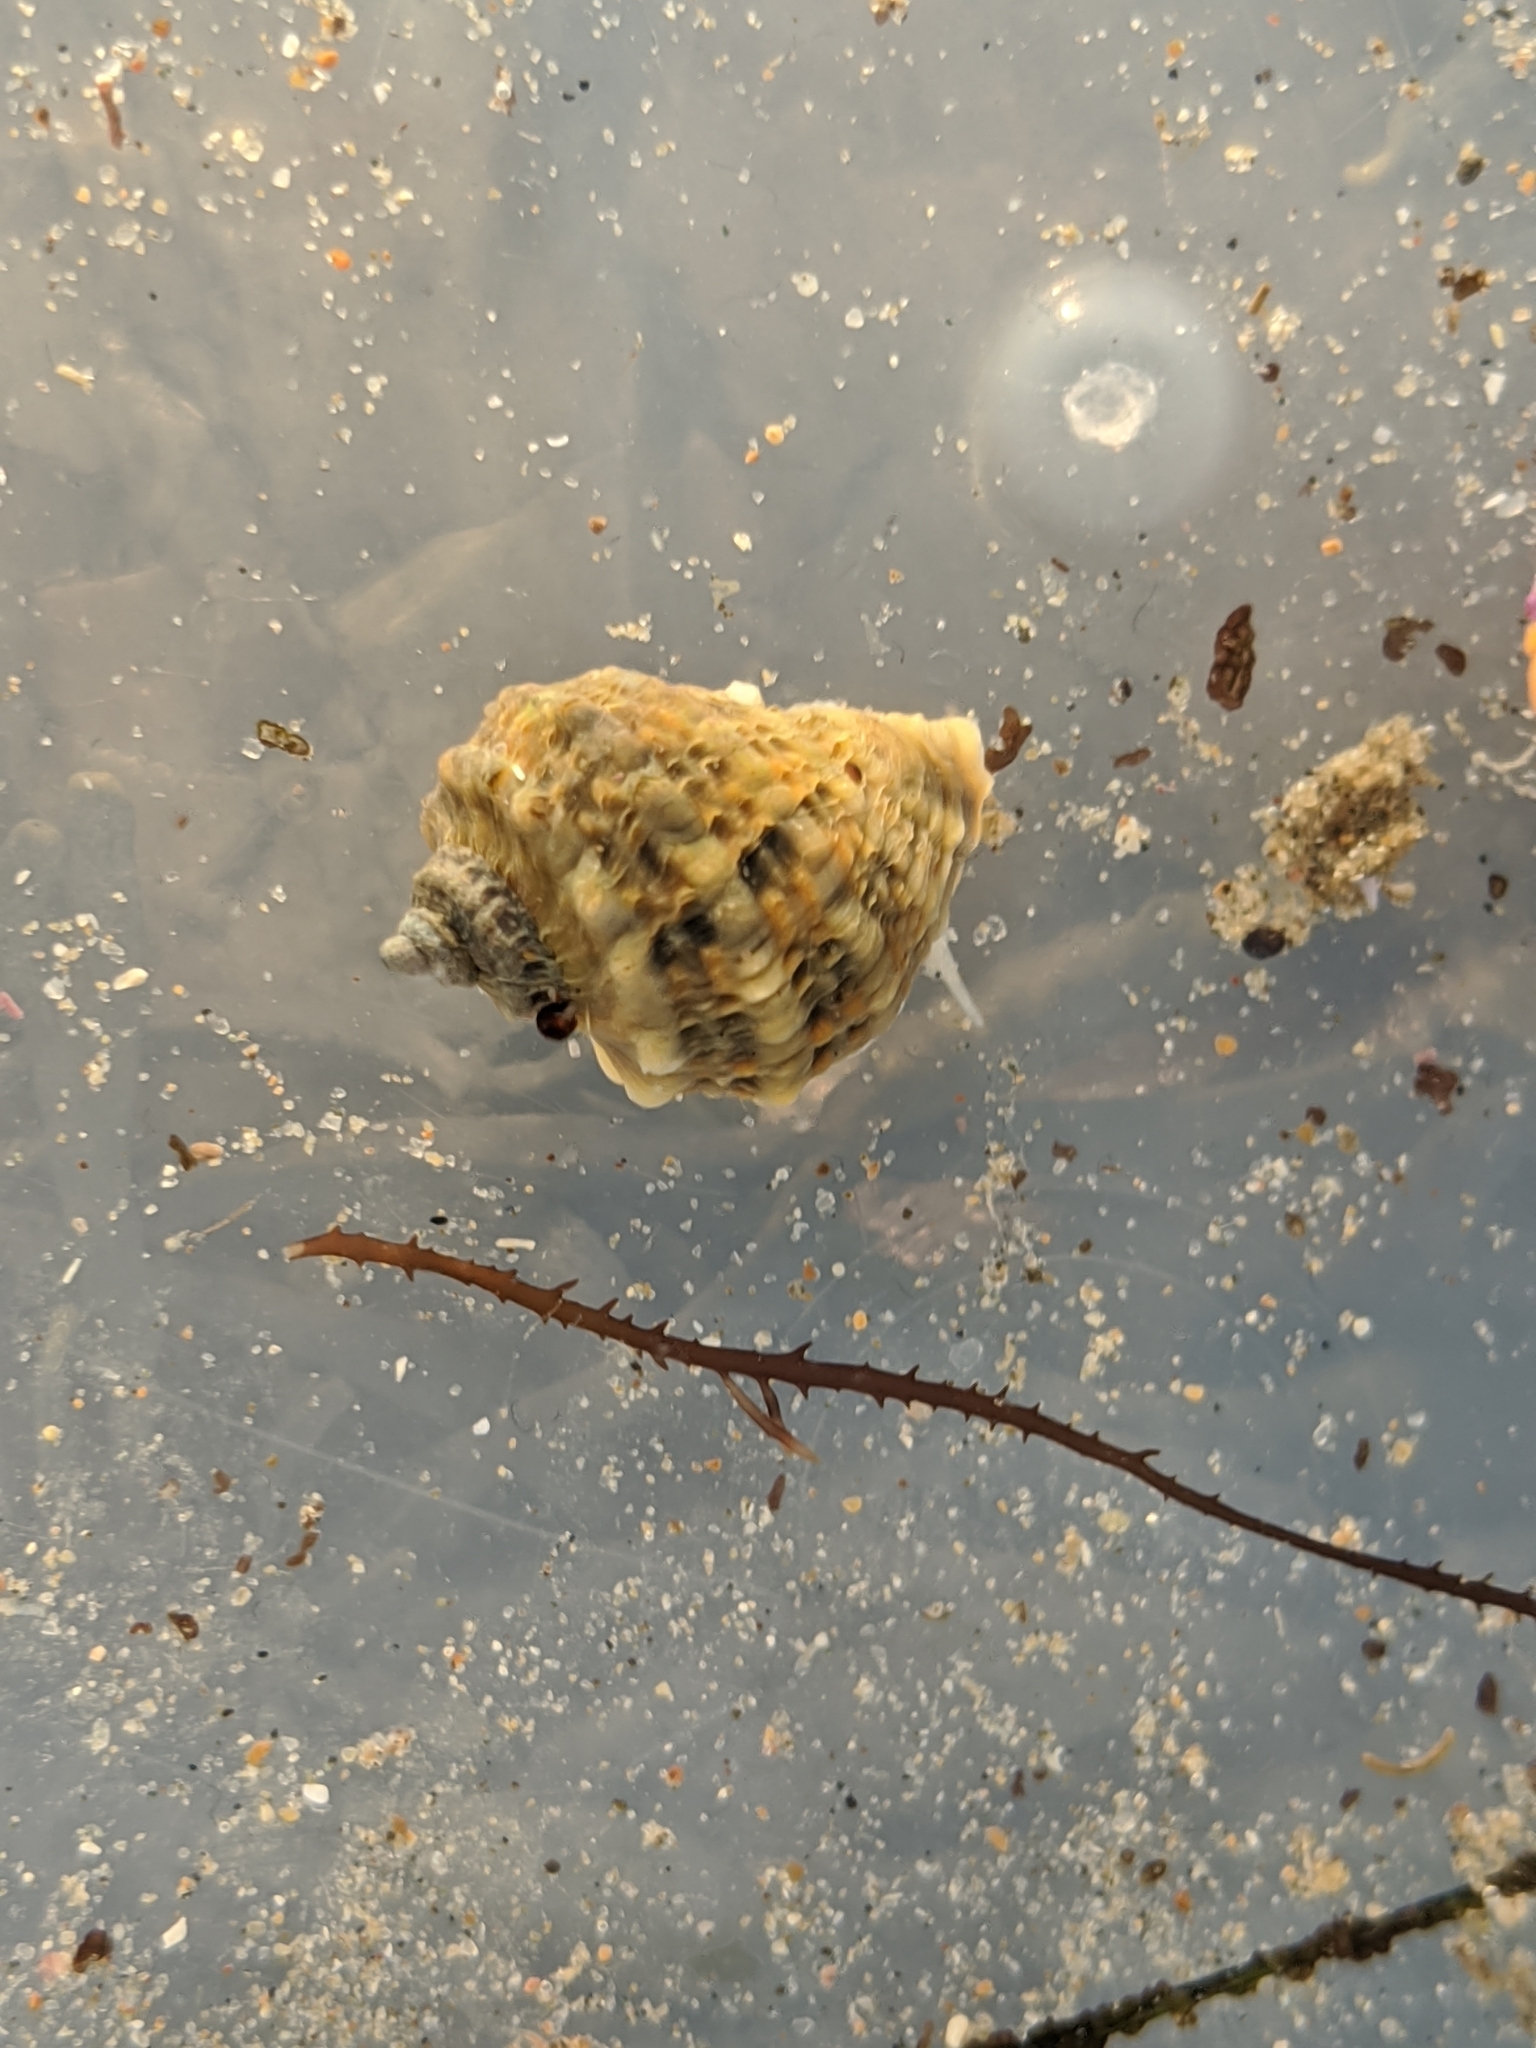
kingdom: Animalia
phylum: Mollusca
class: Gastropoda
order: Neogastropoda
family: Muricidae
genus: Nucella
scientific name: Nucella emarginata
